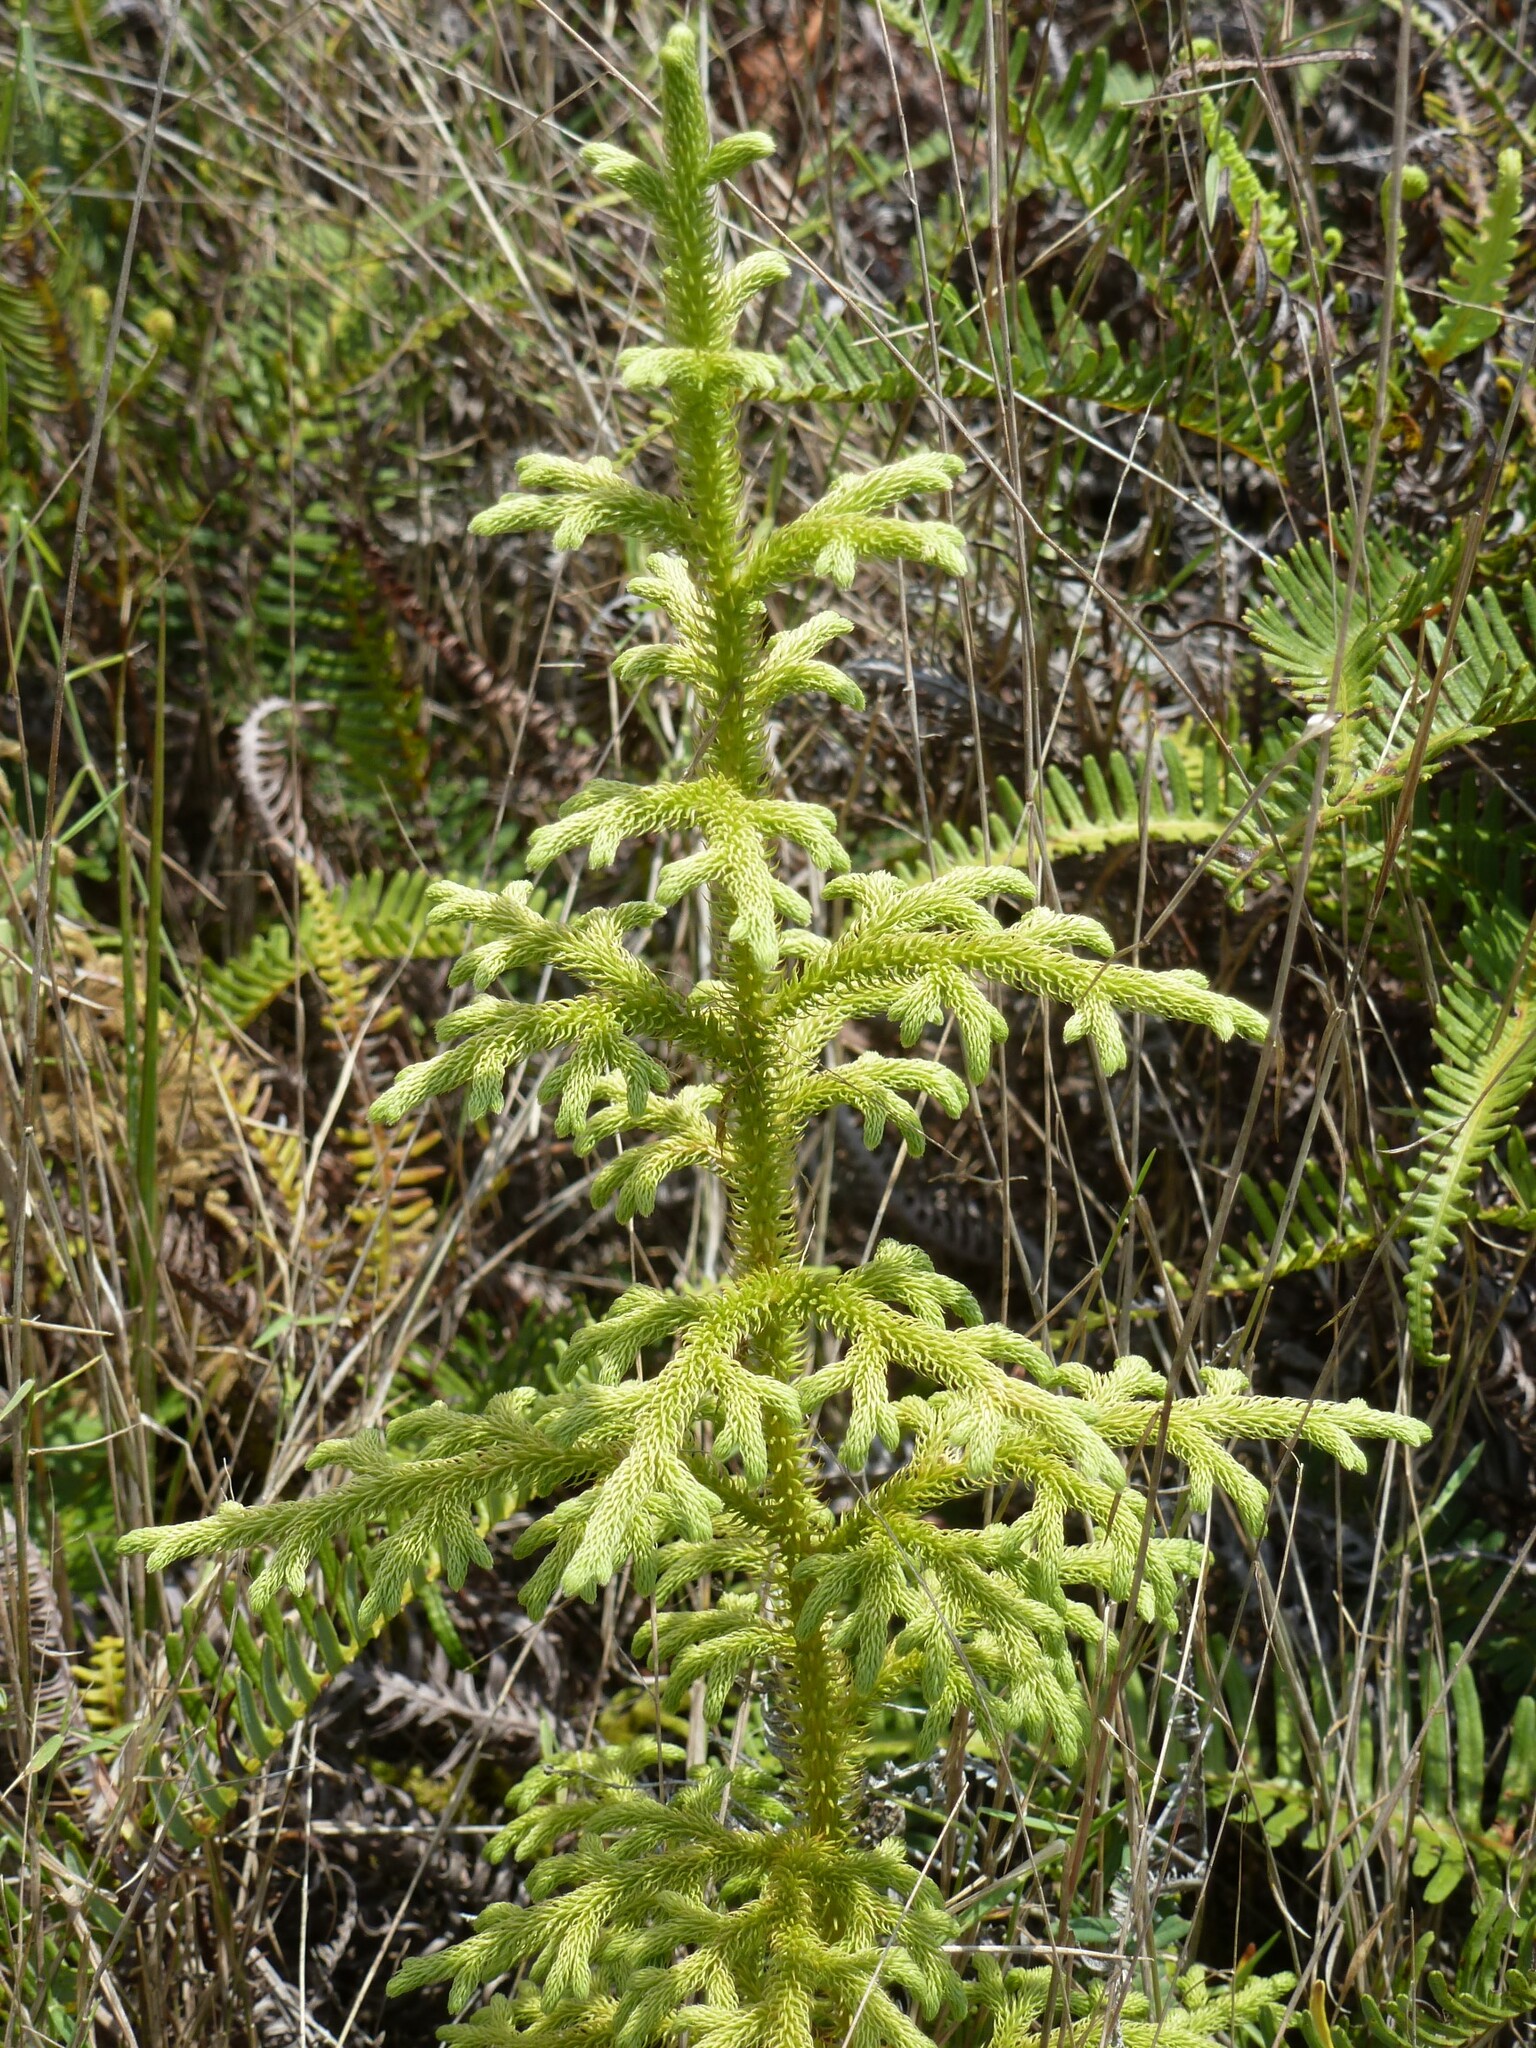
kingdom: Plantae
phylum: Tracheophyta
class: Lycopodiopsida
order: Lycopodiales
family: Lycopodiaceae
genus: Palhinhaea
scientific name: Palhinhaea cernua
